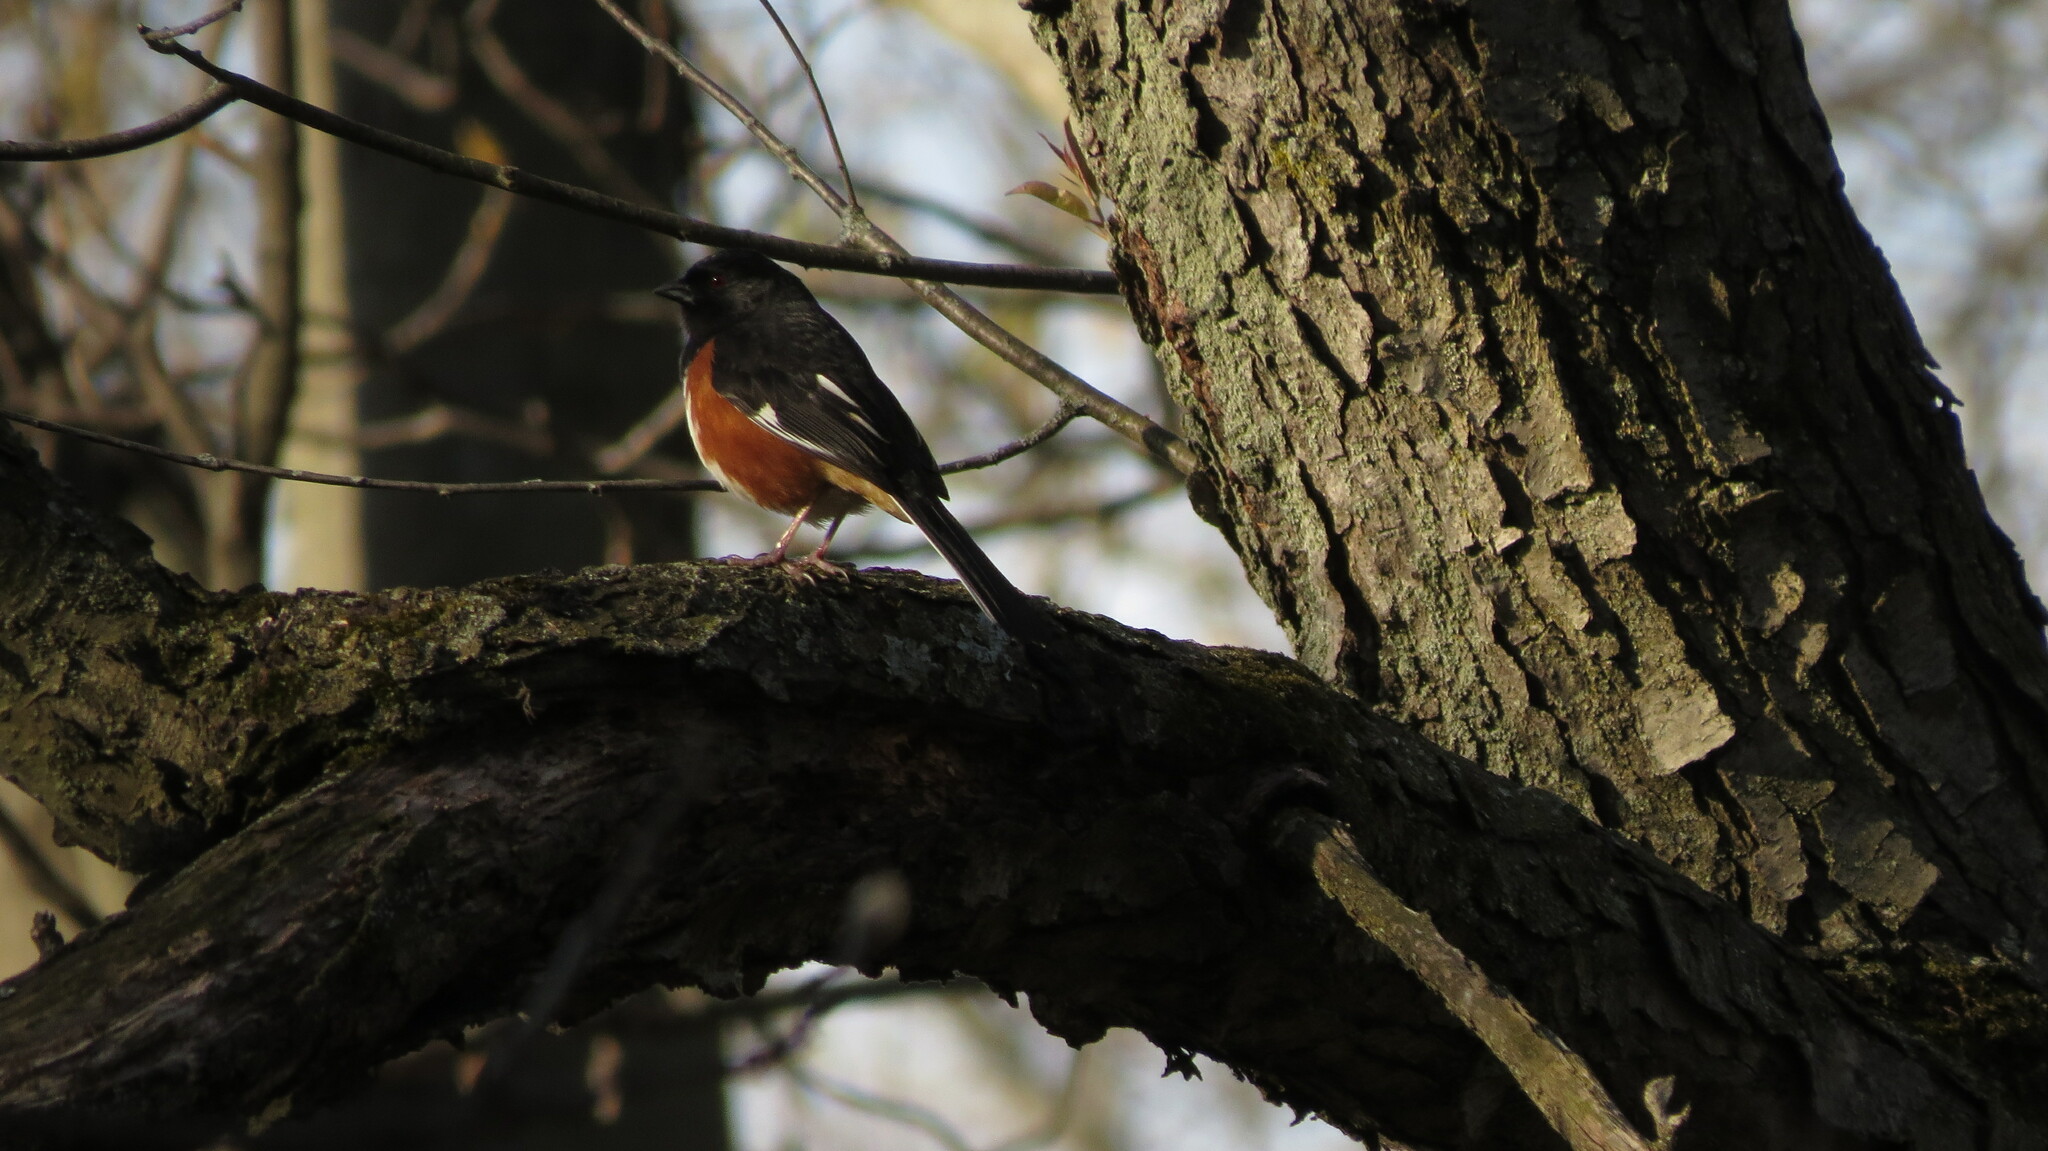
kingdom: Animalia
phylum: Chordata
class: Aves
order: Passeriformes
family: Passerellidae
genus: Pipilo
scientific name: Pipilo erythrophthalmus
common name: Eastern towhee
